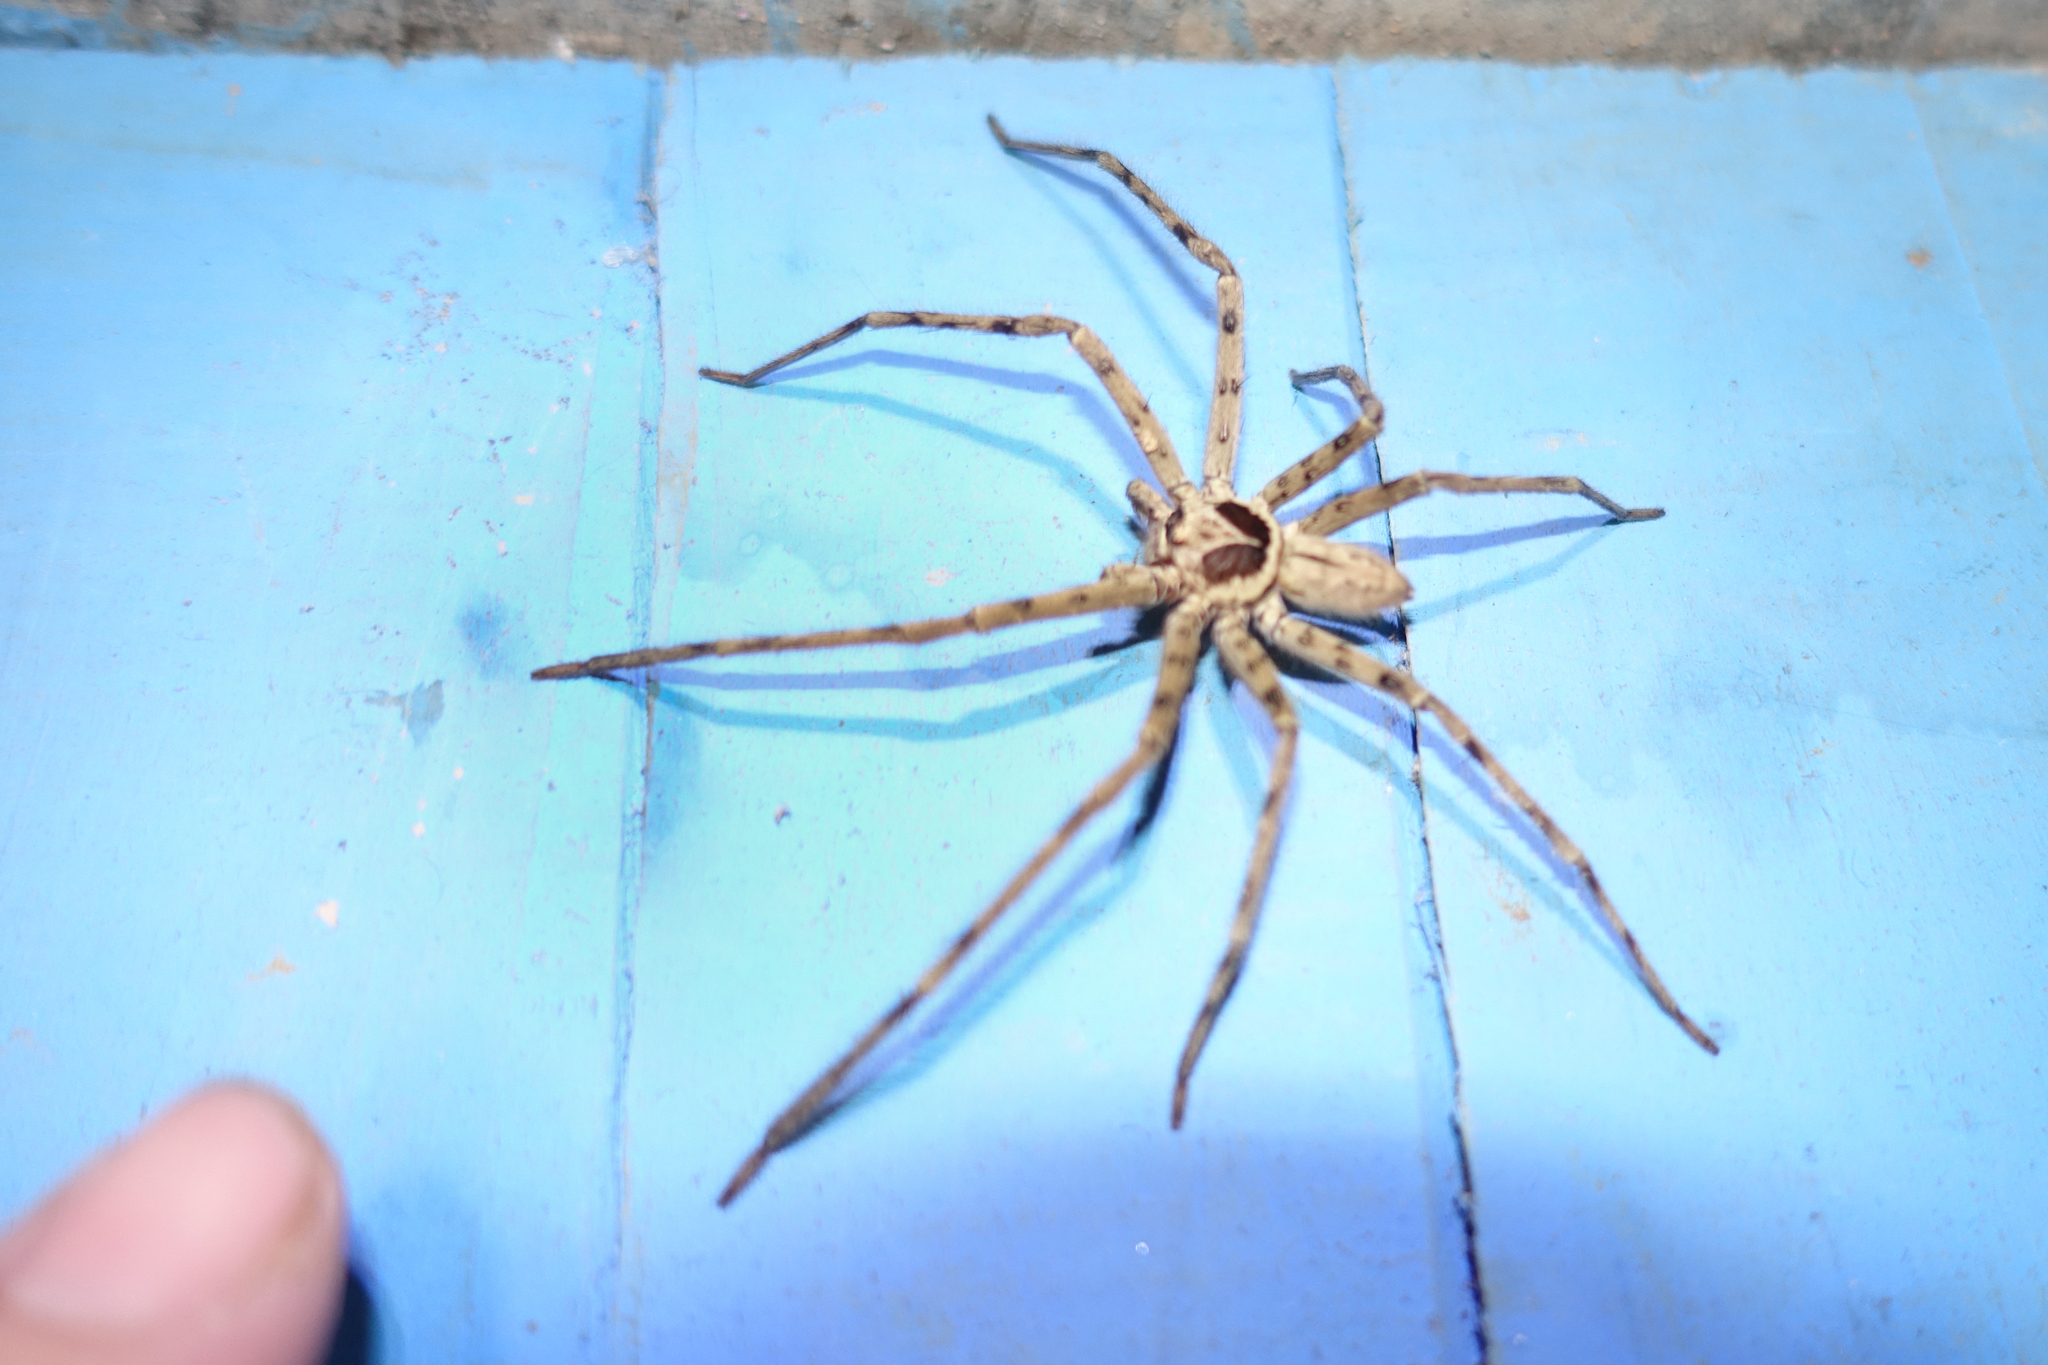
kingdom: Animalia
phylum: Arthropoda
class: Arachnida
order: Araneae
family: Sparassidae
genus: Heteropoda
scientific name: Heteropoda venatoria
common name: Huntsman spider
